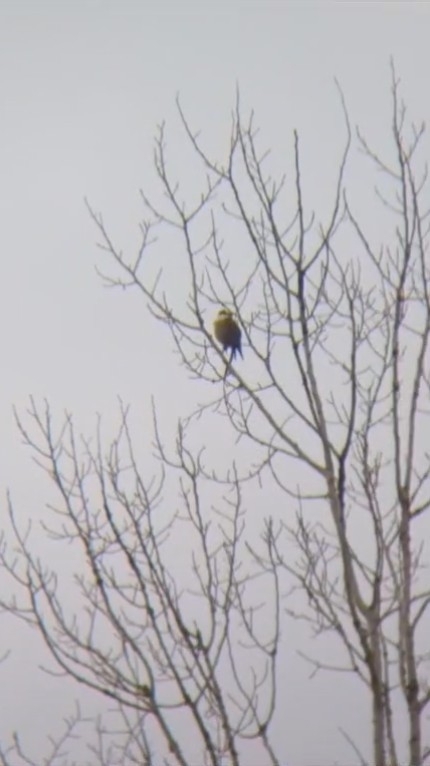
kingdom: Animalia
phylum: Chordata
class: Aves
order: Passeriformes
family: Corvidae
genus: Perisoreus
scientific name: Perisoreus canadensis
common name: Gray jay
